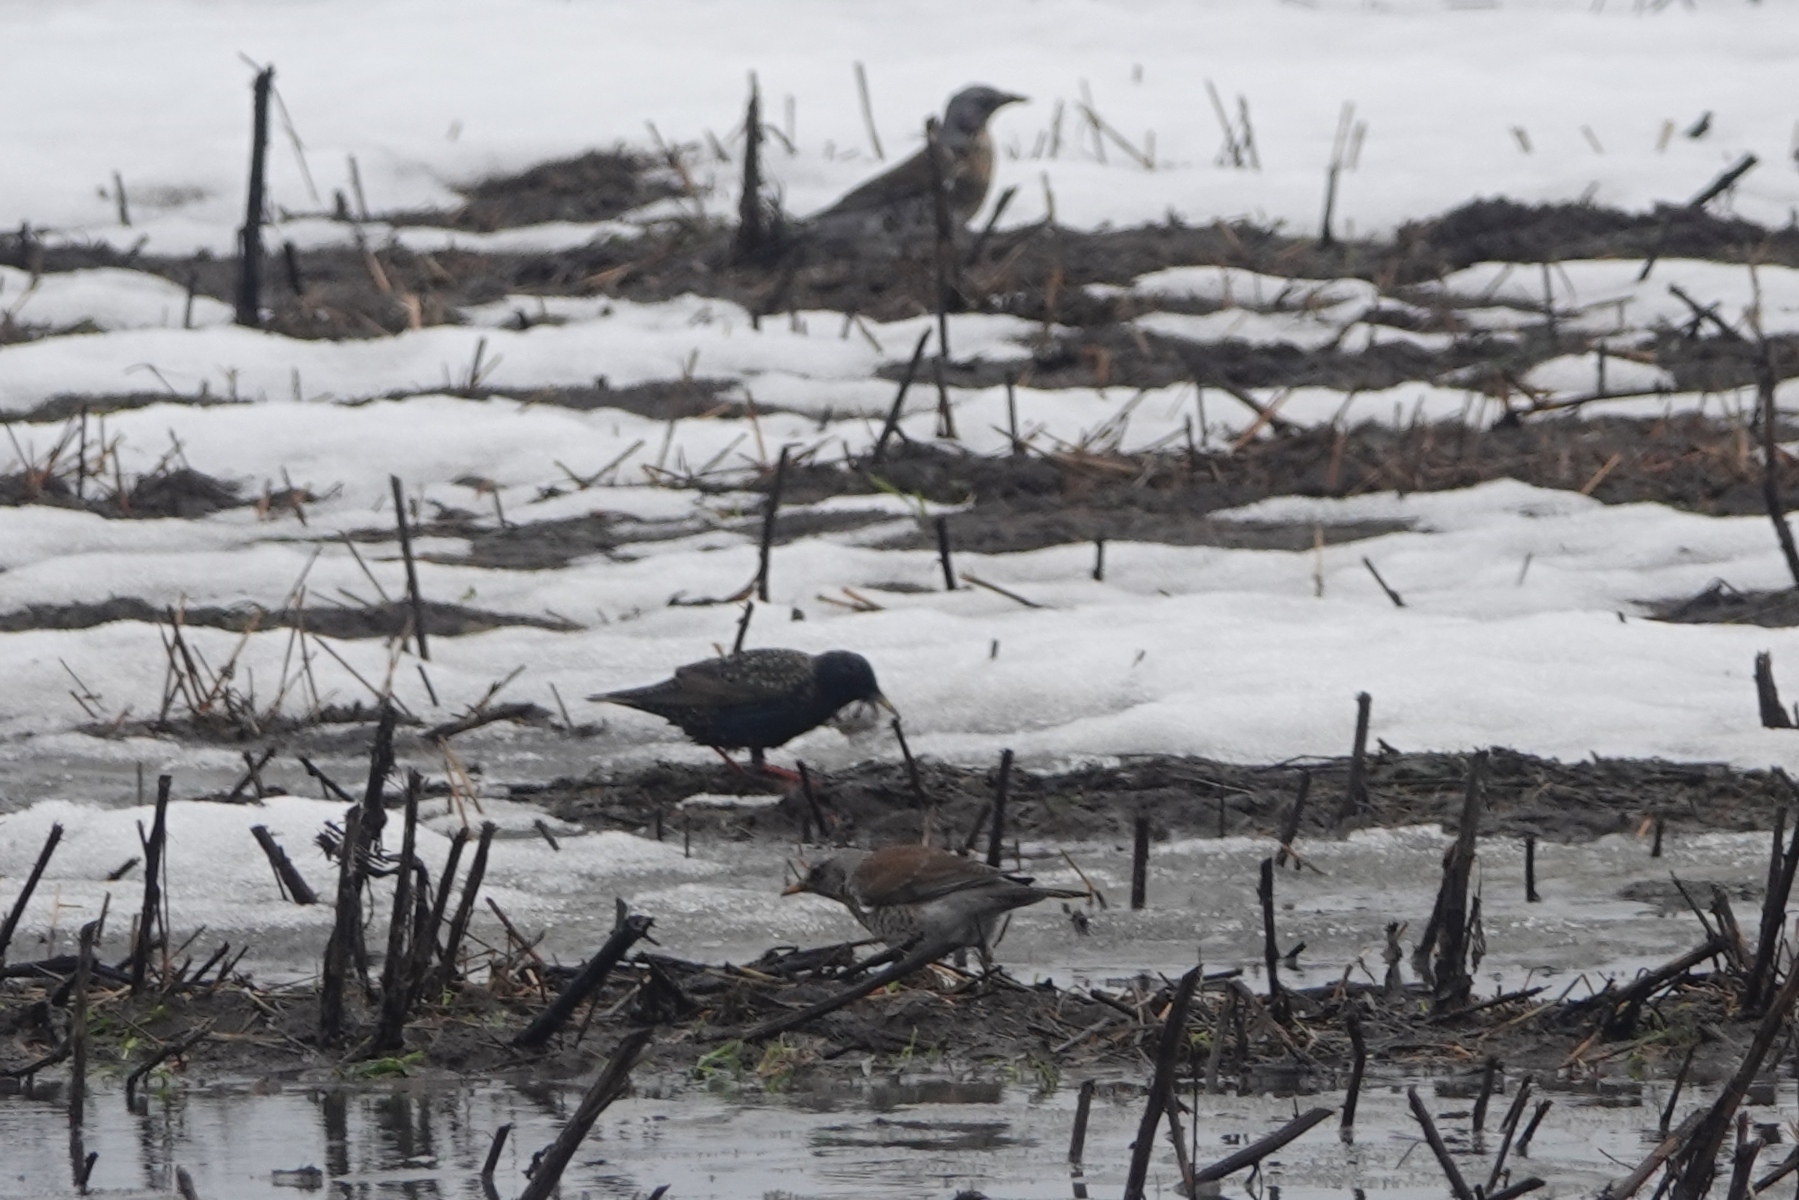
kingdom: Animalia
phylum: Chordata
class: Aves
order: Passeriformes
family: Turdidae
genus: Turdus
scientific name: Turdus pilaris
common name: Fieldfare
